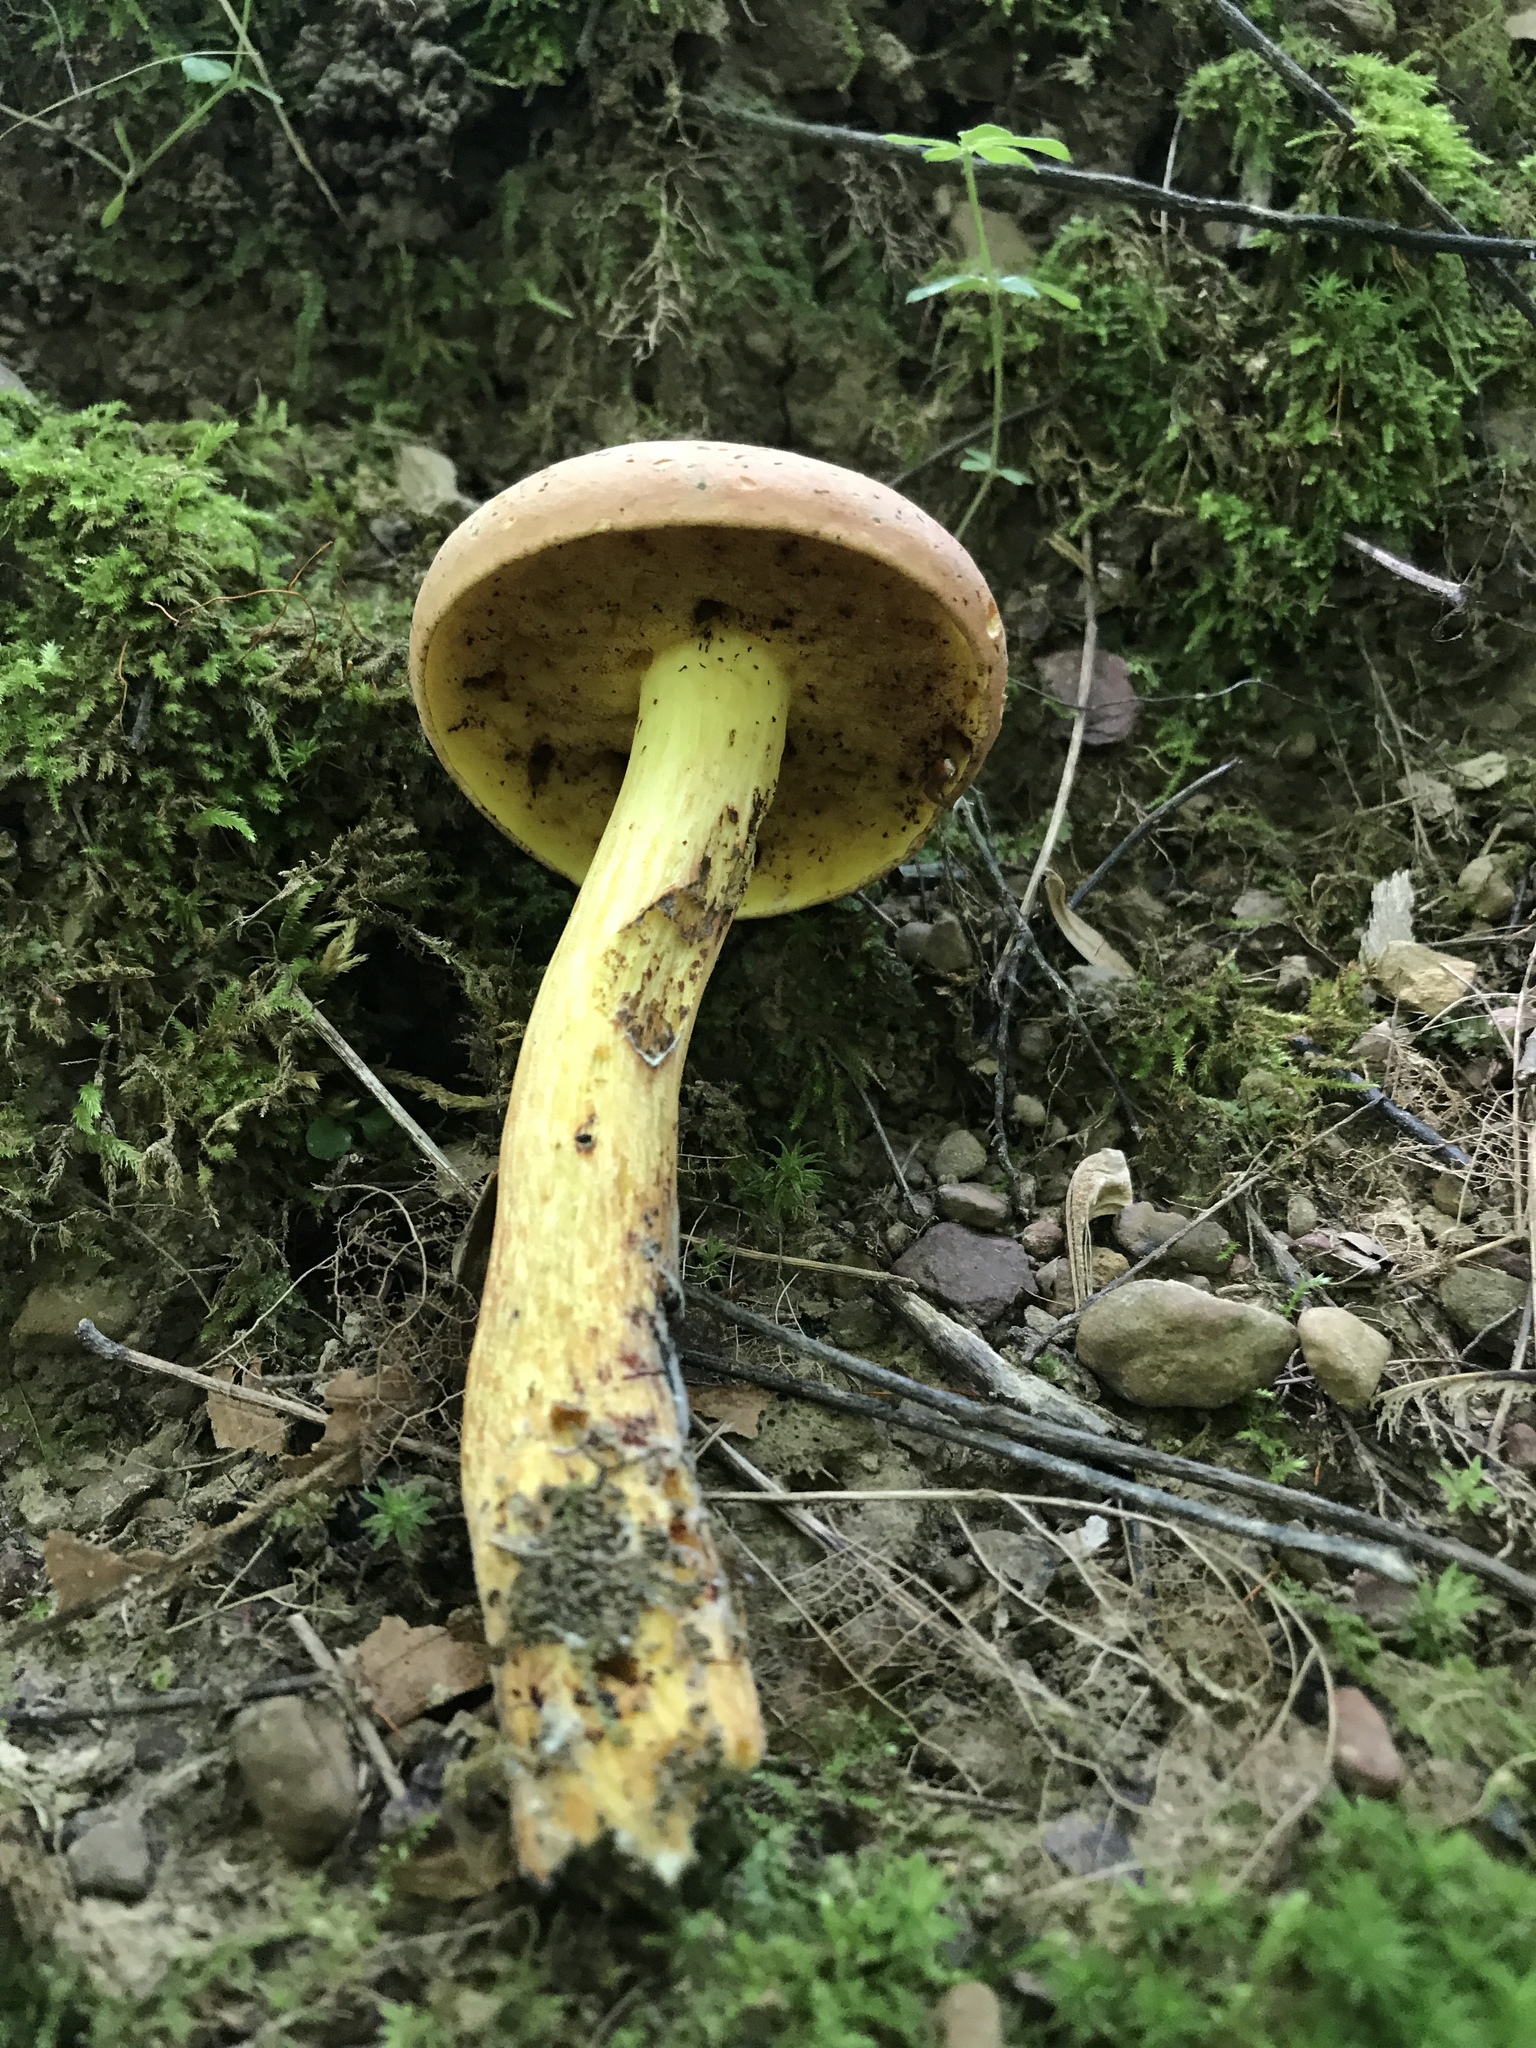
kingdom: Fungi
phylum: Basidiomycota
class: Agaricomycetes
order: Boletales
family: Boletaceae
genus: Lanmaoa
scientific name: Lanmaoa carminipes
